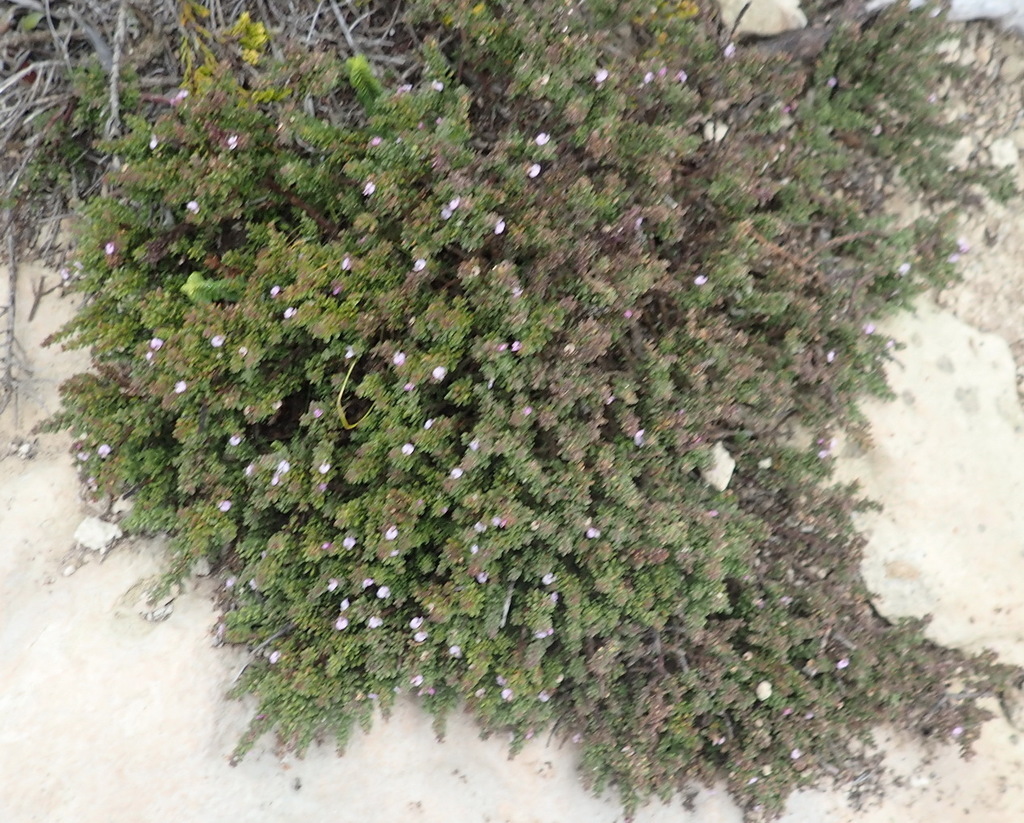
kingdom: Plantae
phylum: Tracheophyta
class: Magnoliopsida
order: Fabales
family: Polygalaceae
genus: Muraltia
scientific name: Muraltia satureioides
